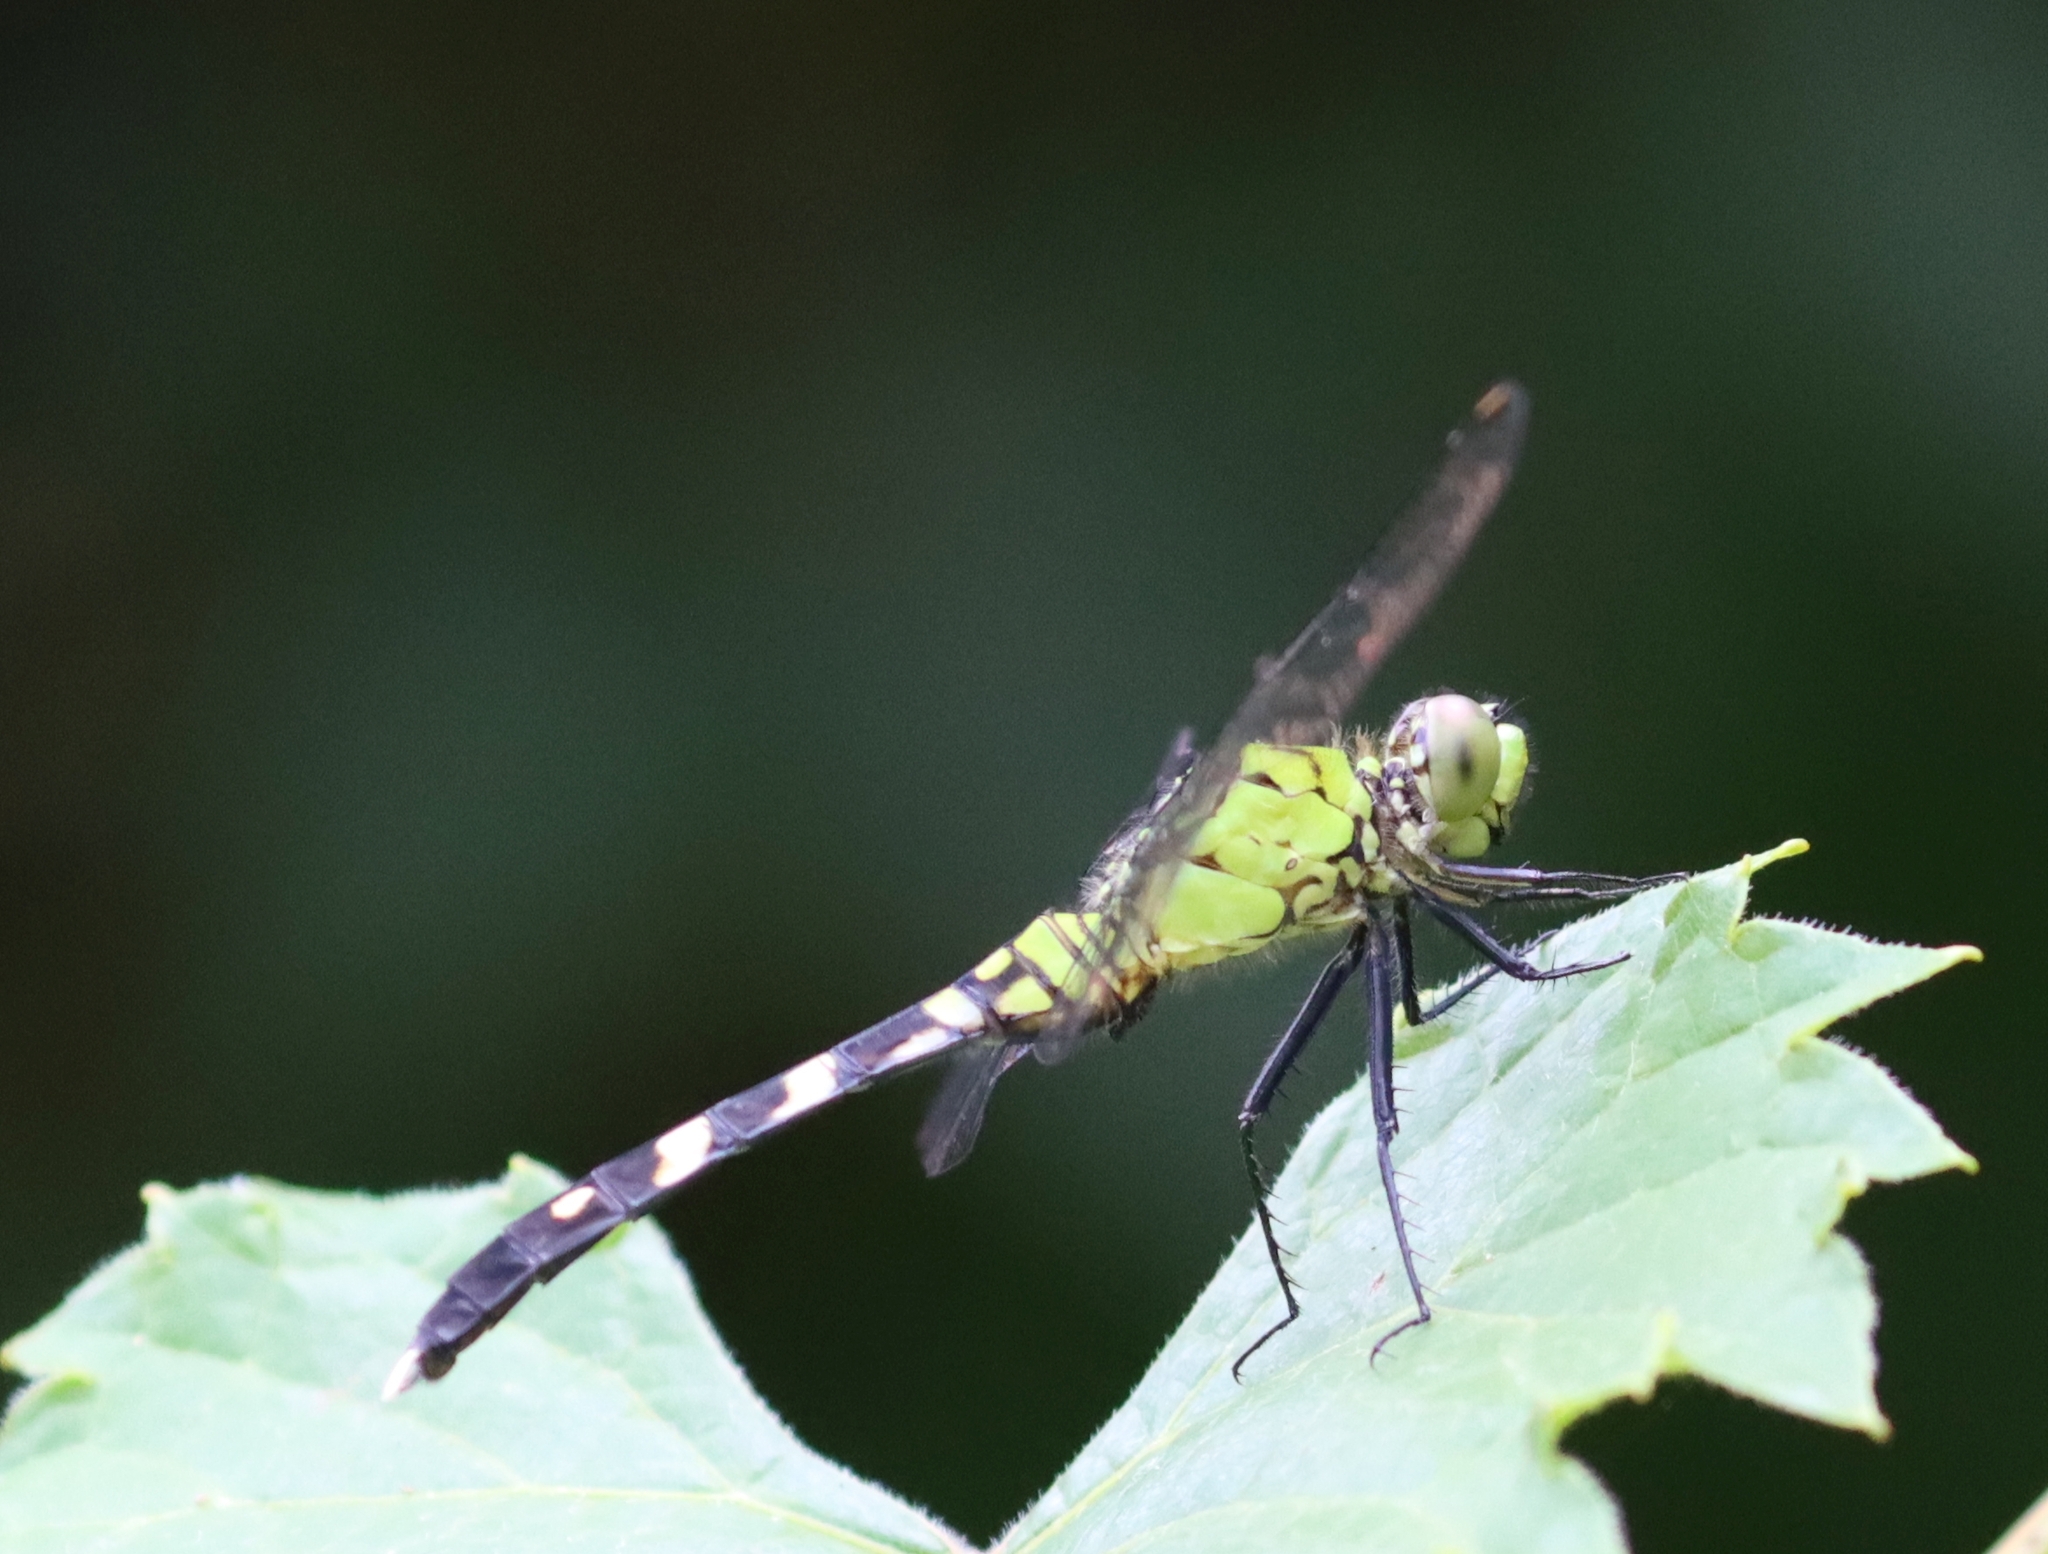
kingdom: Animalia
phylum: Arthropoda
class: Insecta
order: Odonata
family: Libellulidae
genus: Erythemis
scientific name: Erythemis simplicicollis
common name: Eastern pondhawk
